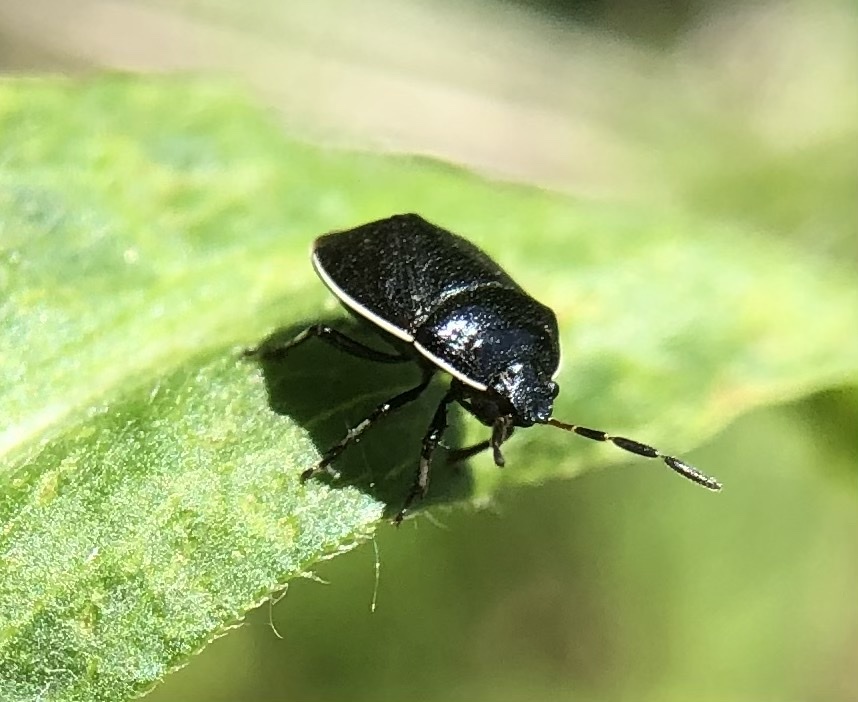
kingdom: Animalia
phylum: Arthropoda
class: Insecta
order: Hemiptera
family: Cydnidae
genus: Sehirus
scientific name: Sehirus cinctus
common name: White-margined burrower bug
